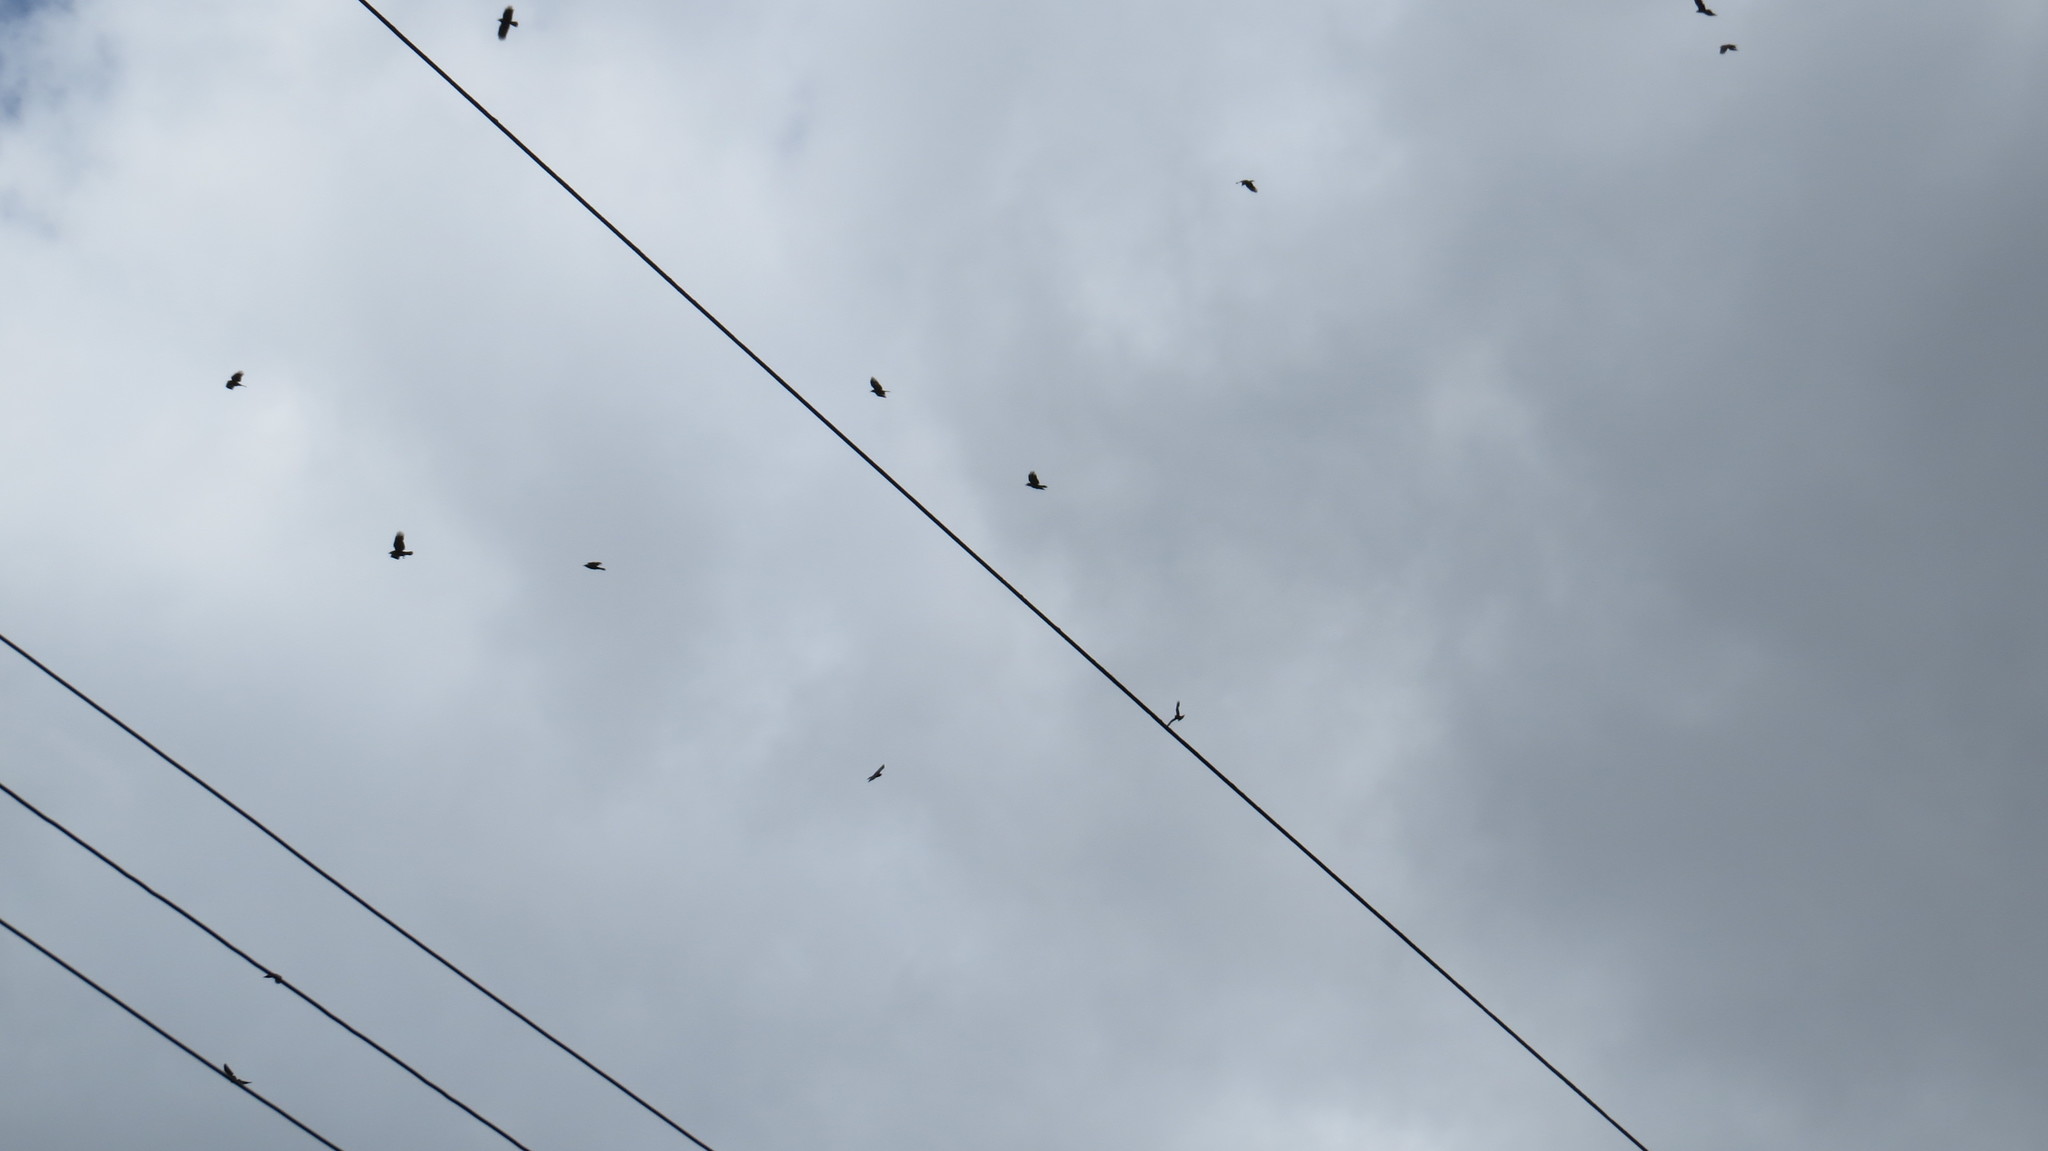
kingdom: Animalia
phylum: Chordata
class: Aves
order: Passeriformes
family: Corvidae
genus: Corvus
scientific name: Corvus brachyrhynchos
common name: American crow
